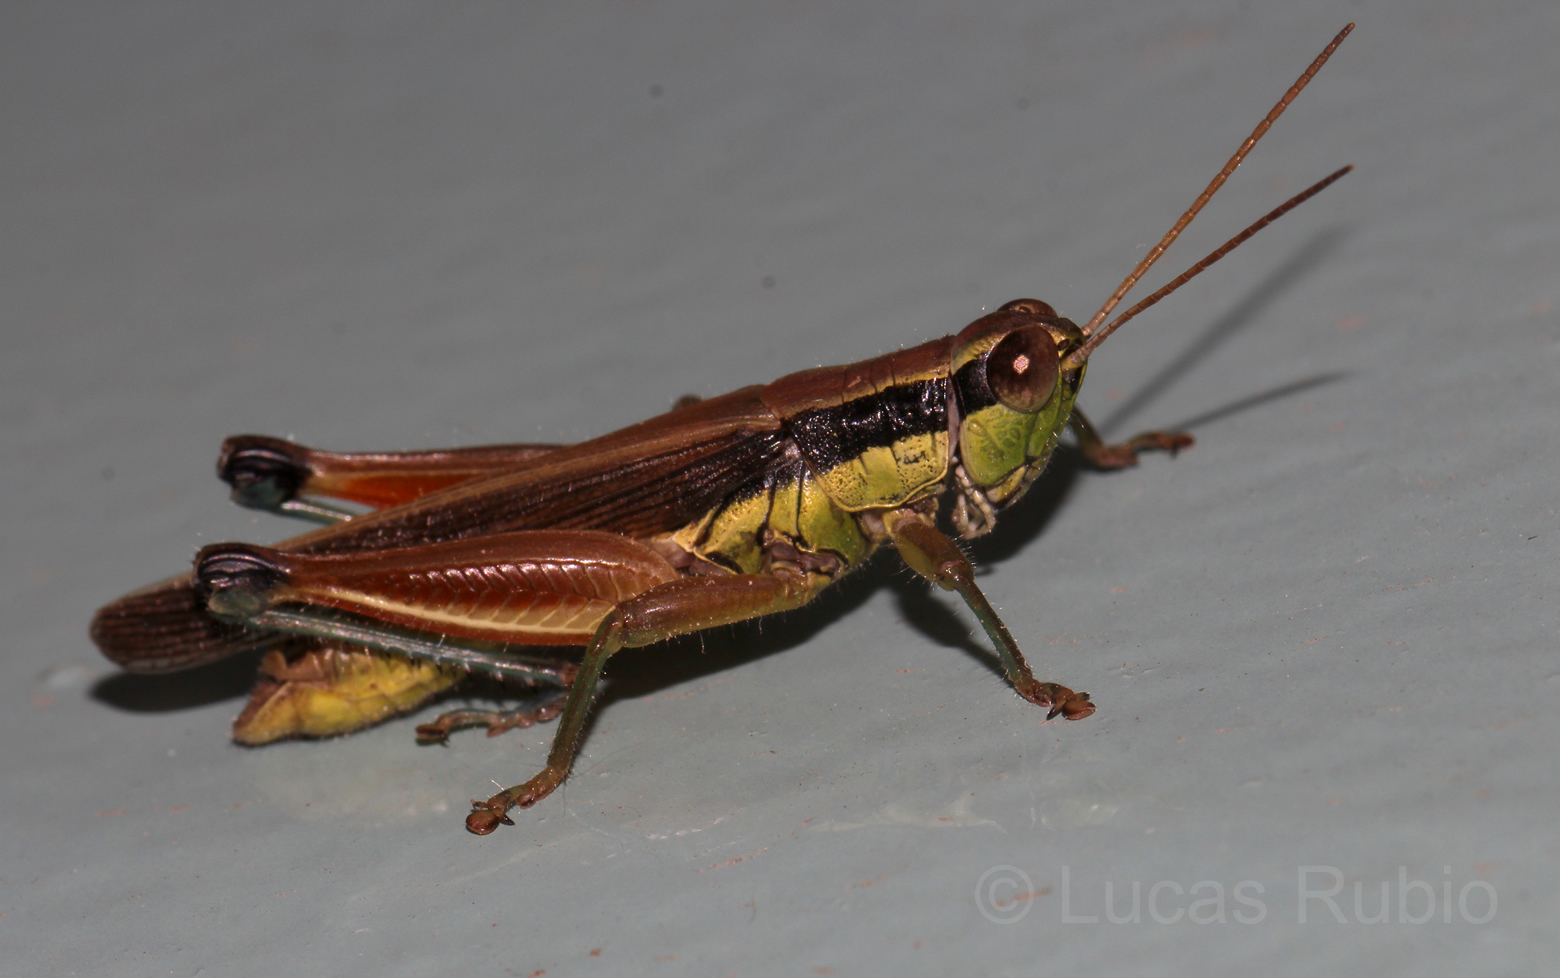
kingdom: Animalia
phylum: Arthropoda
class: Insecta
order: Orthoptera
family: Acrididae
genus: Scotussa
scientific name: Scotussa impudica
